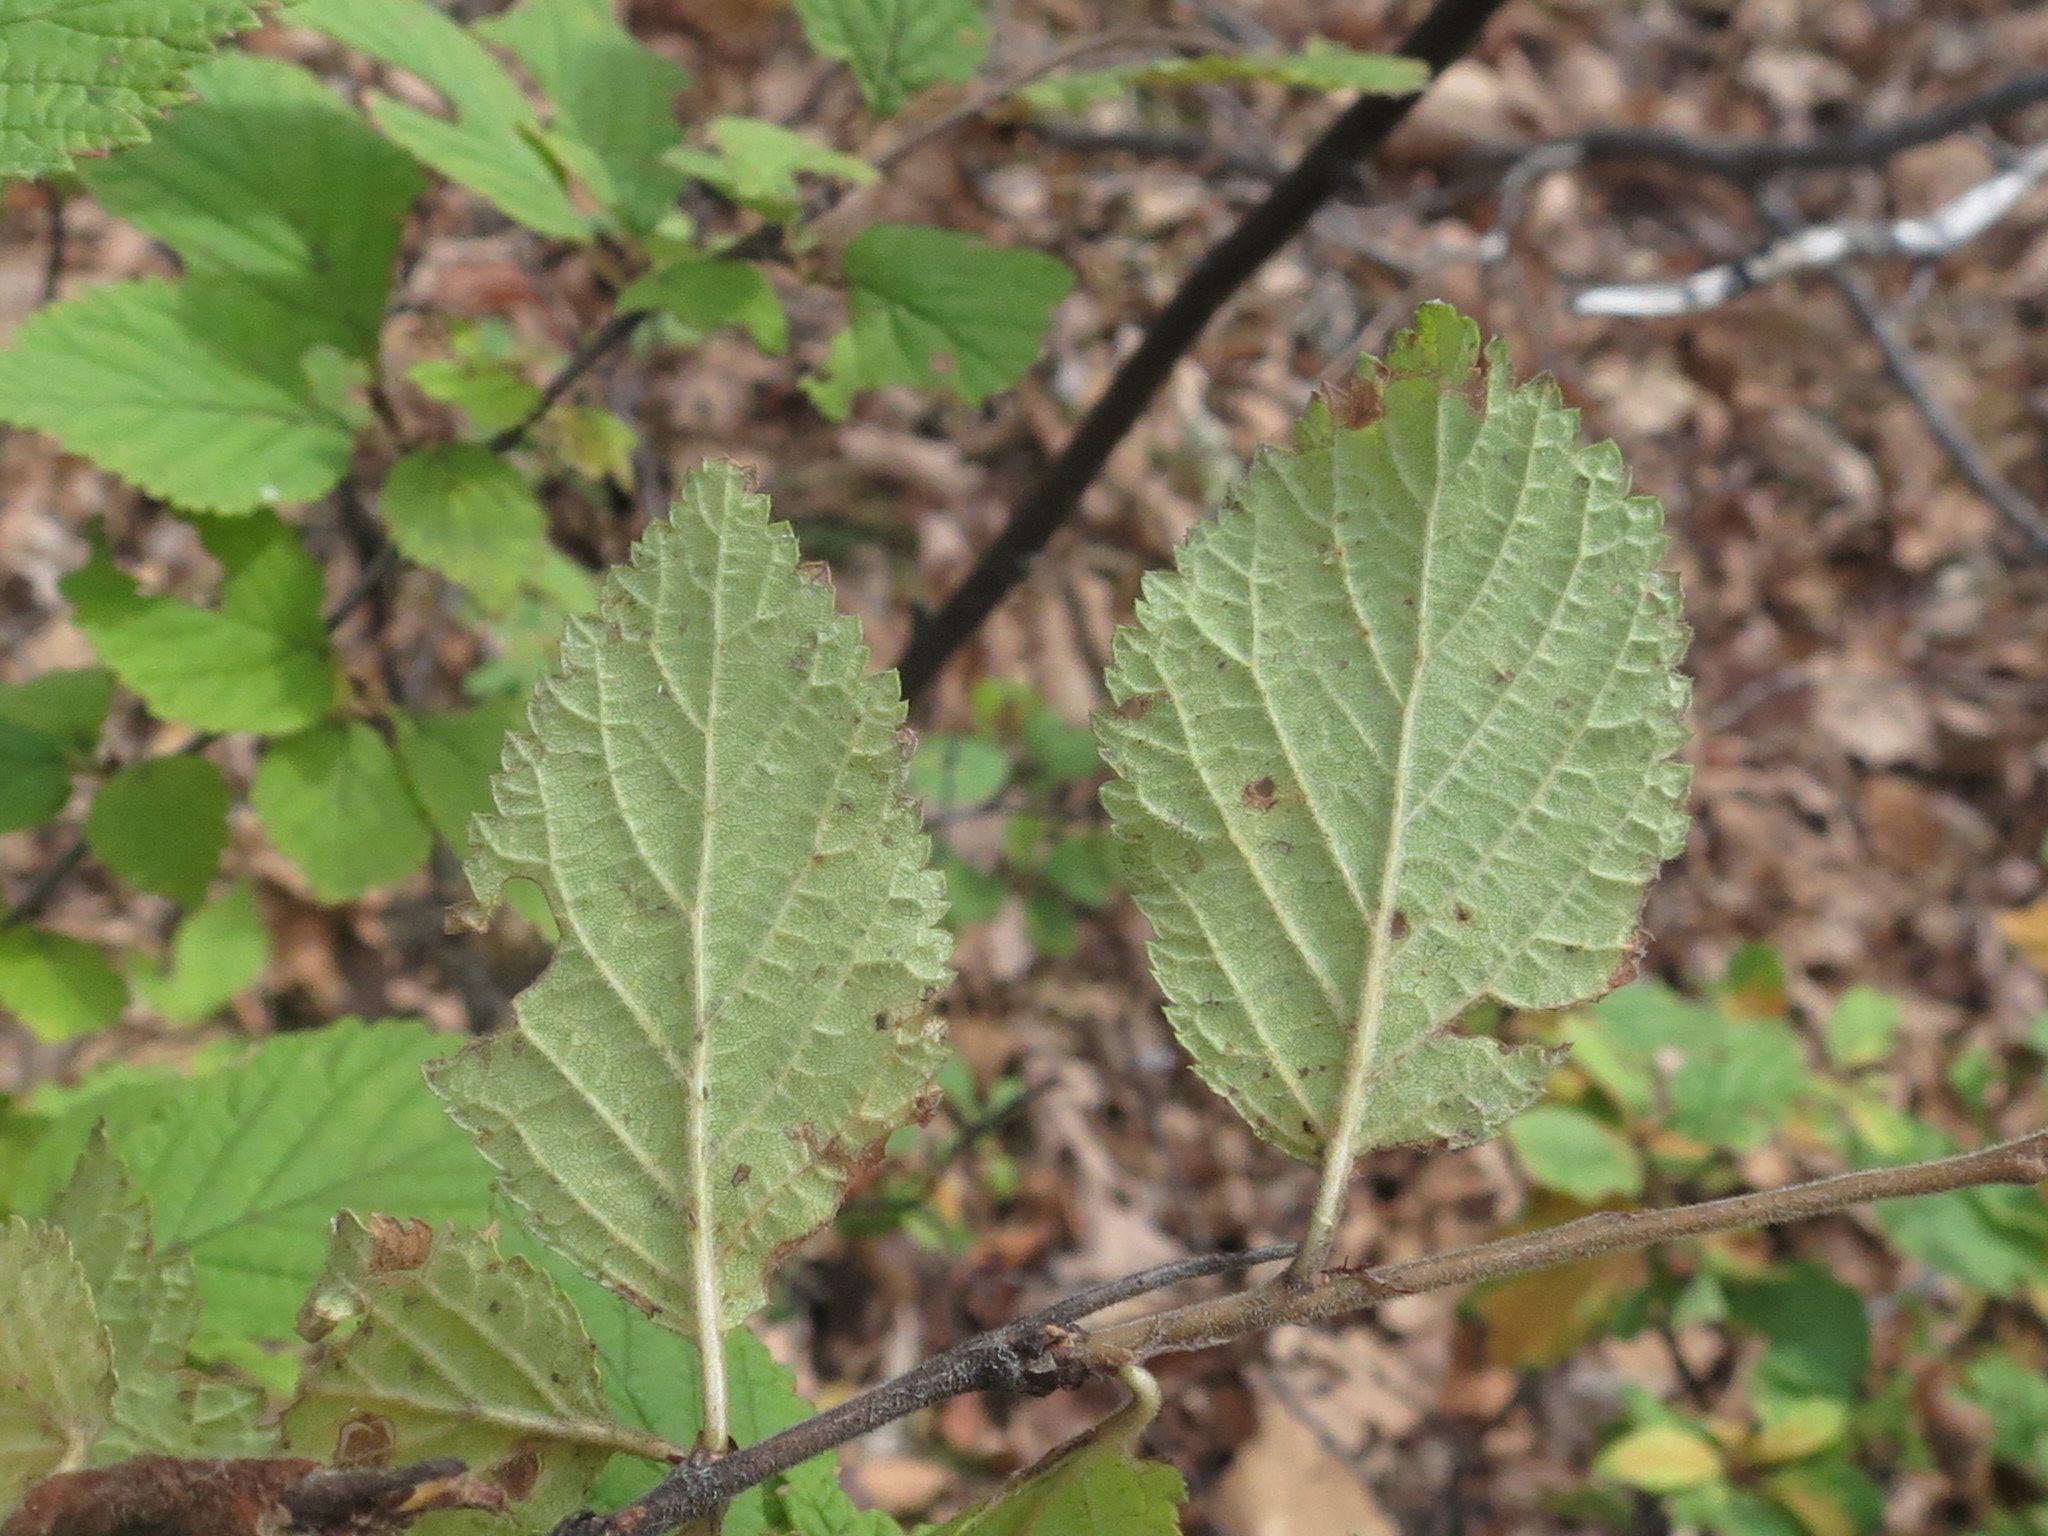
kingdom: Plantae
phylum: Tracheophyta
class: Magnoliopsida
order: Rosales
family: Rosaceae
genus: Prunus
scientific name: Prunus tomentosa
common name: Nanking cherry
